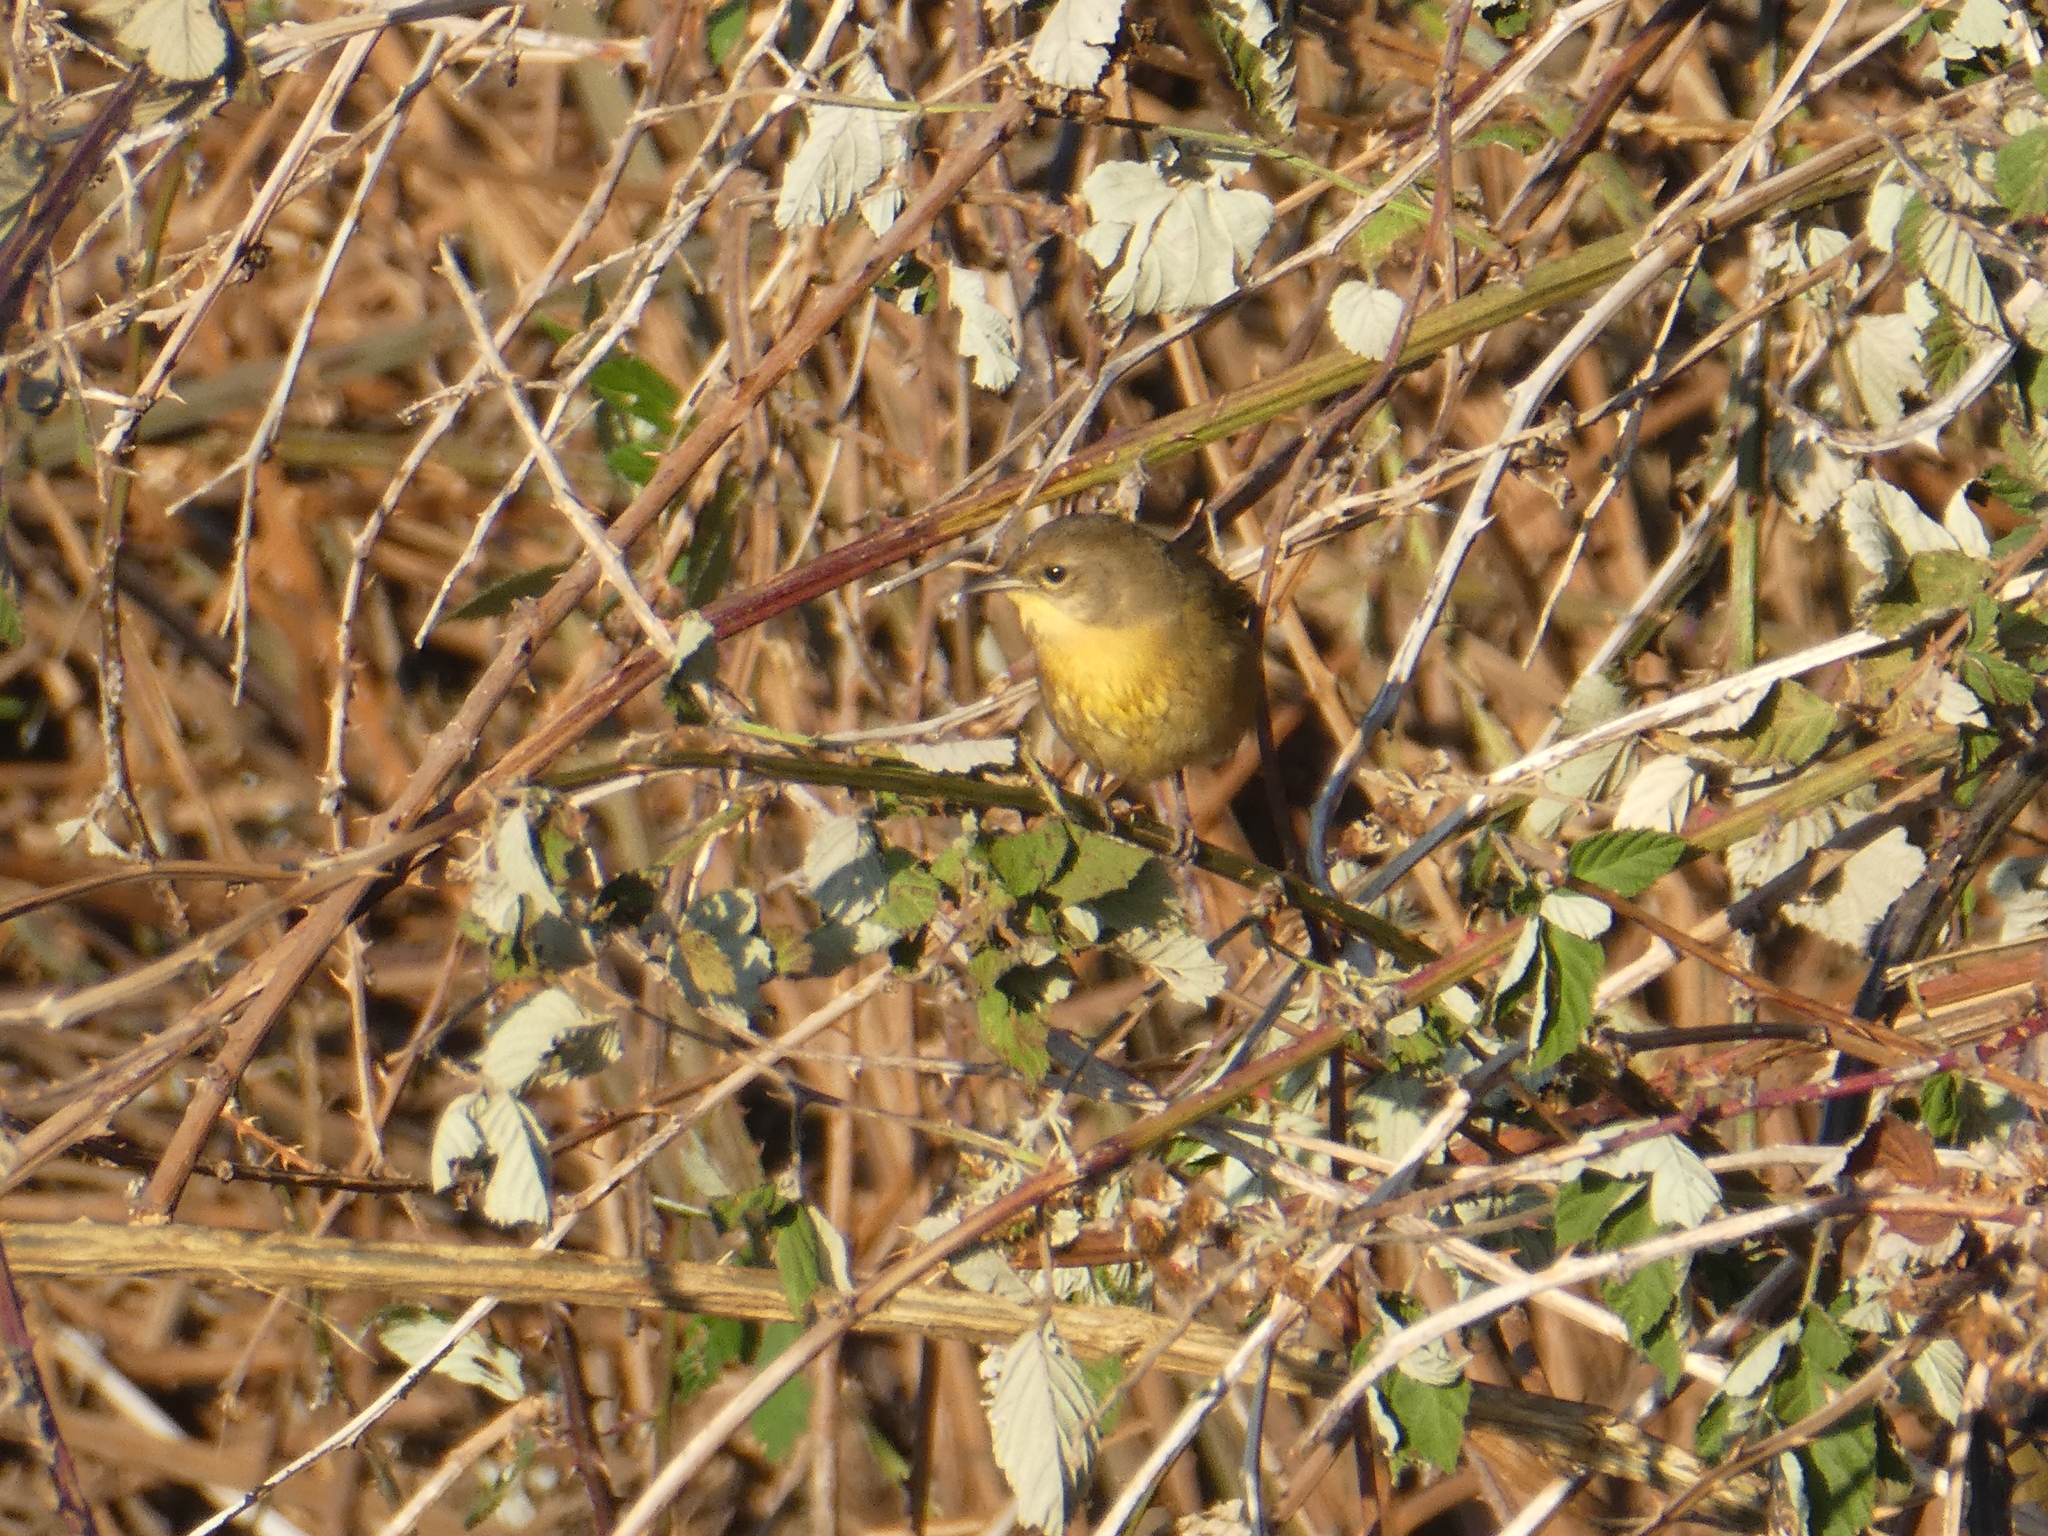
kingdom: Animalia
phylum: Chordata
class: Aves
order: Passeriformes
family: Parulidae
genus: Geothlypis
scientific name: Geothlypis trichas
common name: Common yellowthroat
